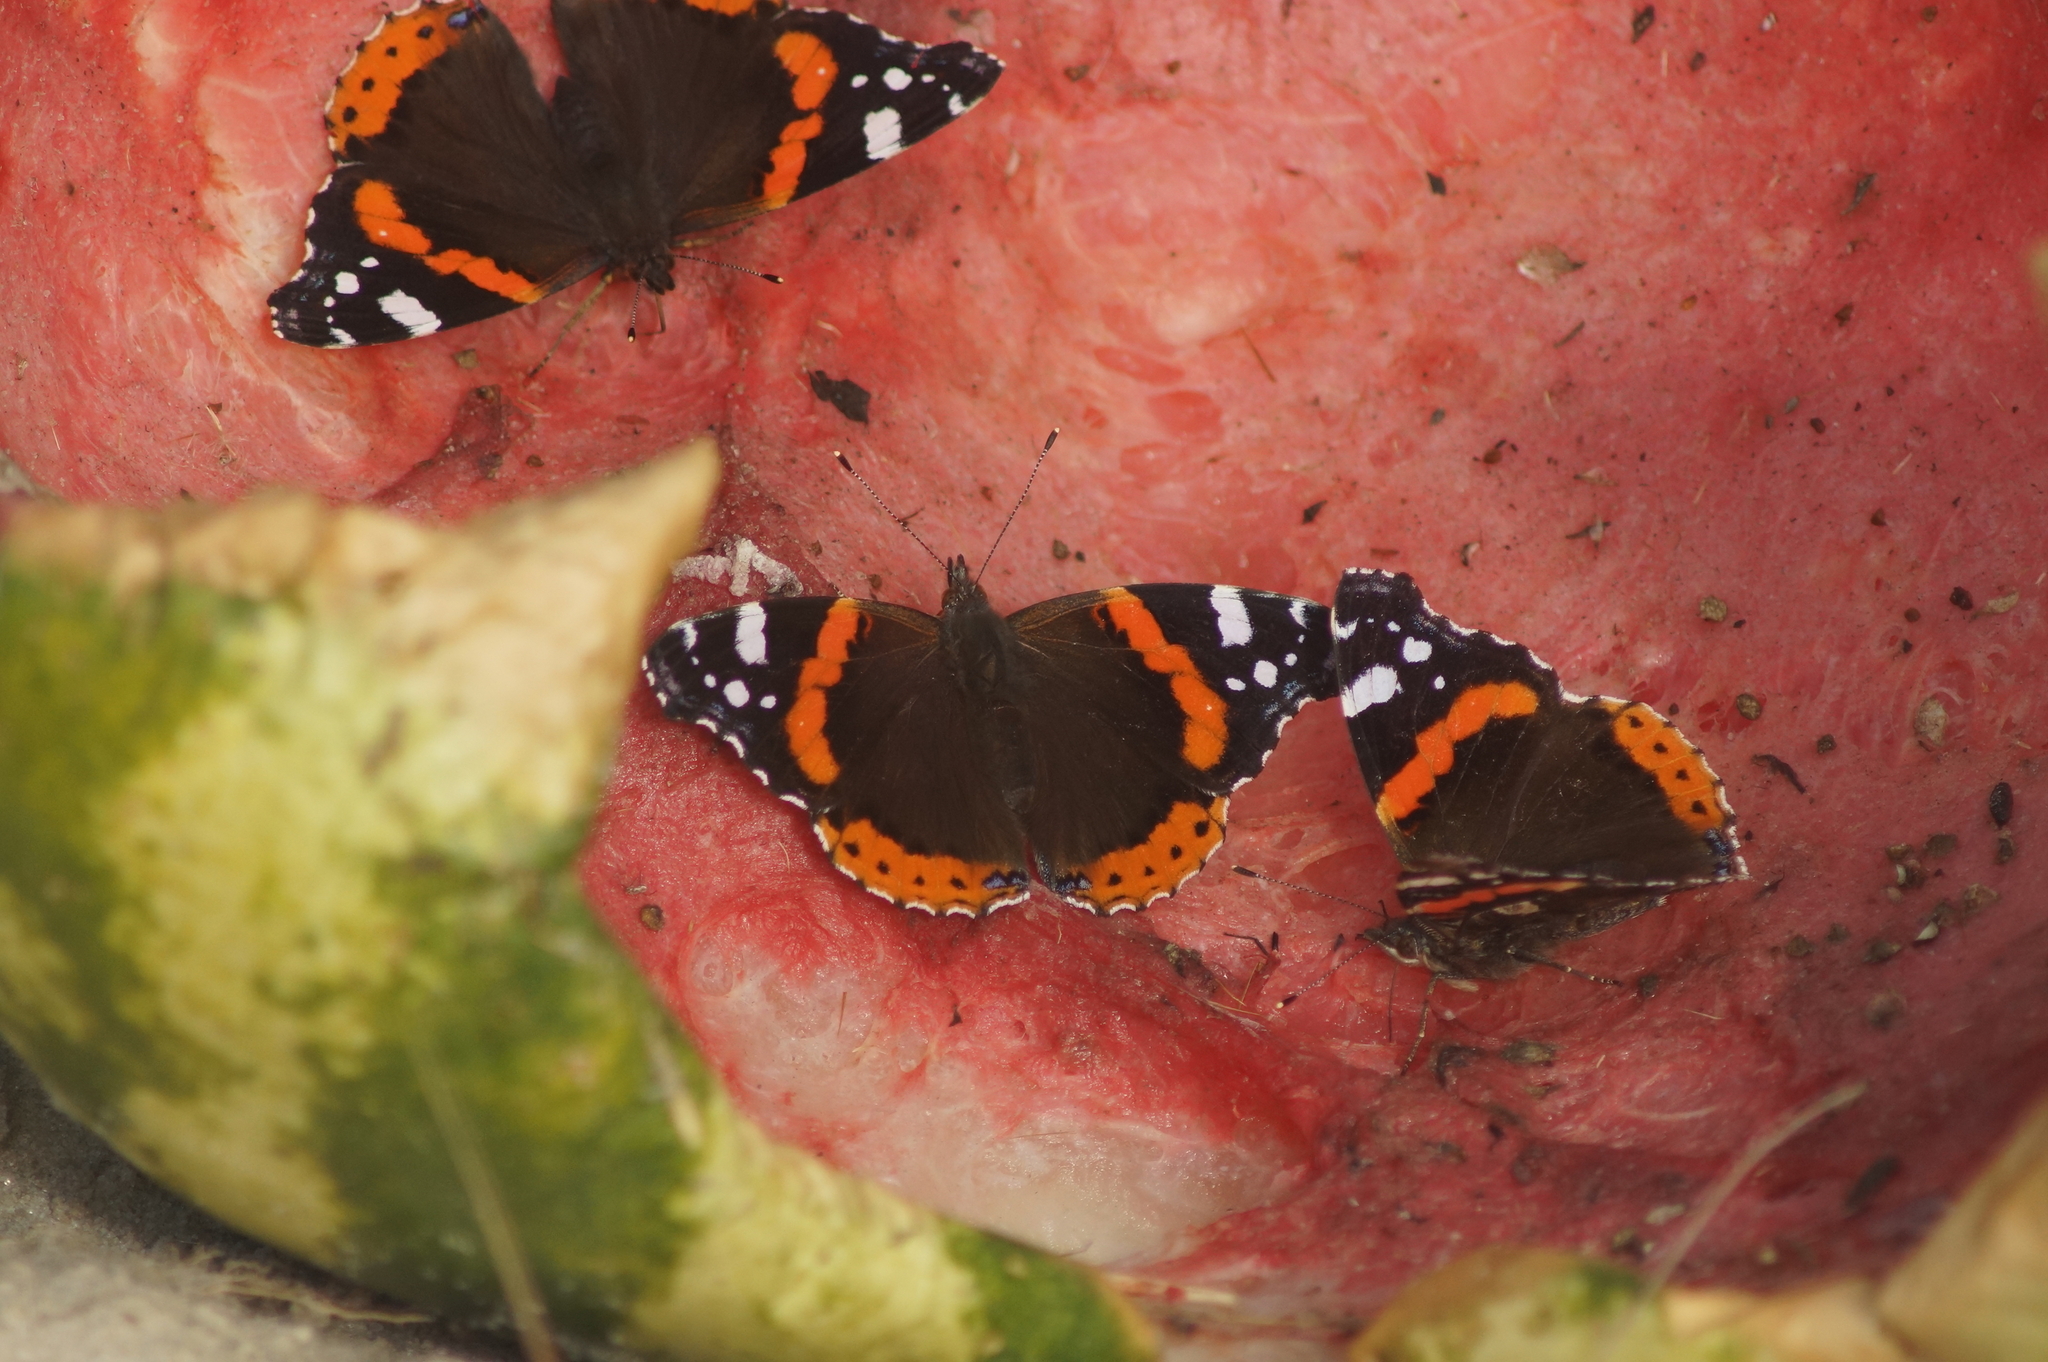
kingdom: Animalia
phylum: Arthropoda
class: Insecta
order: Lepidoptera
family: Nymphalidae
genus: Vanessa
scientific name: Vanessa atalanta
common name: Red admiral
